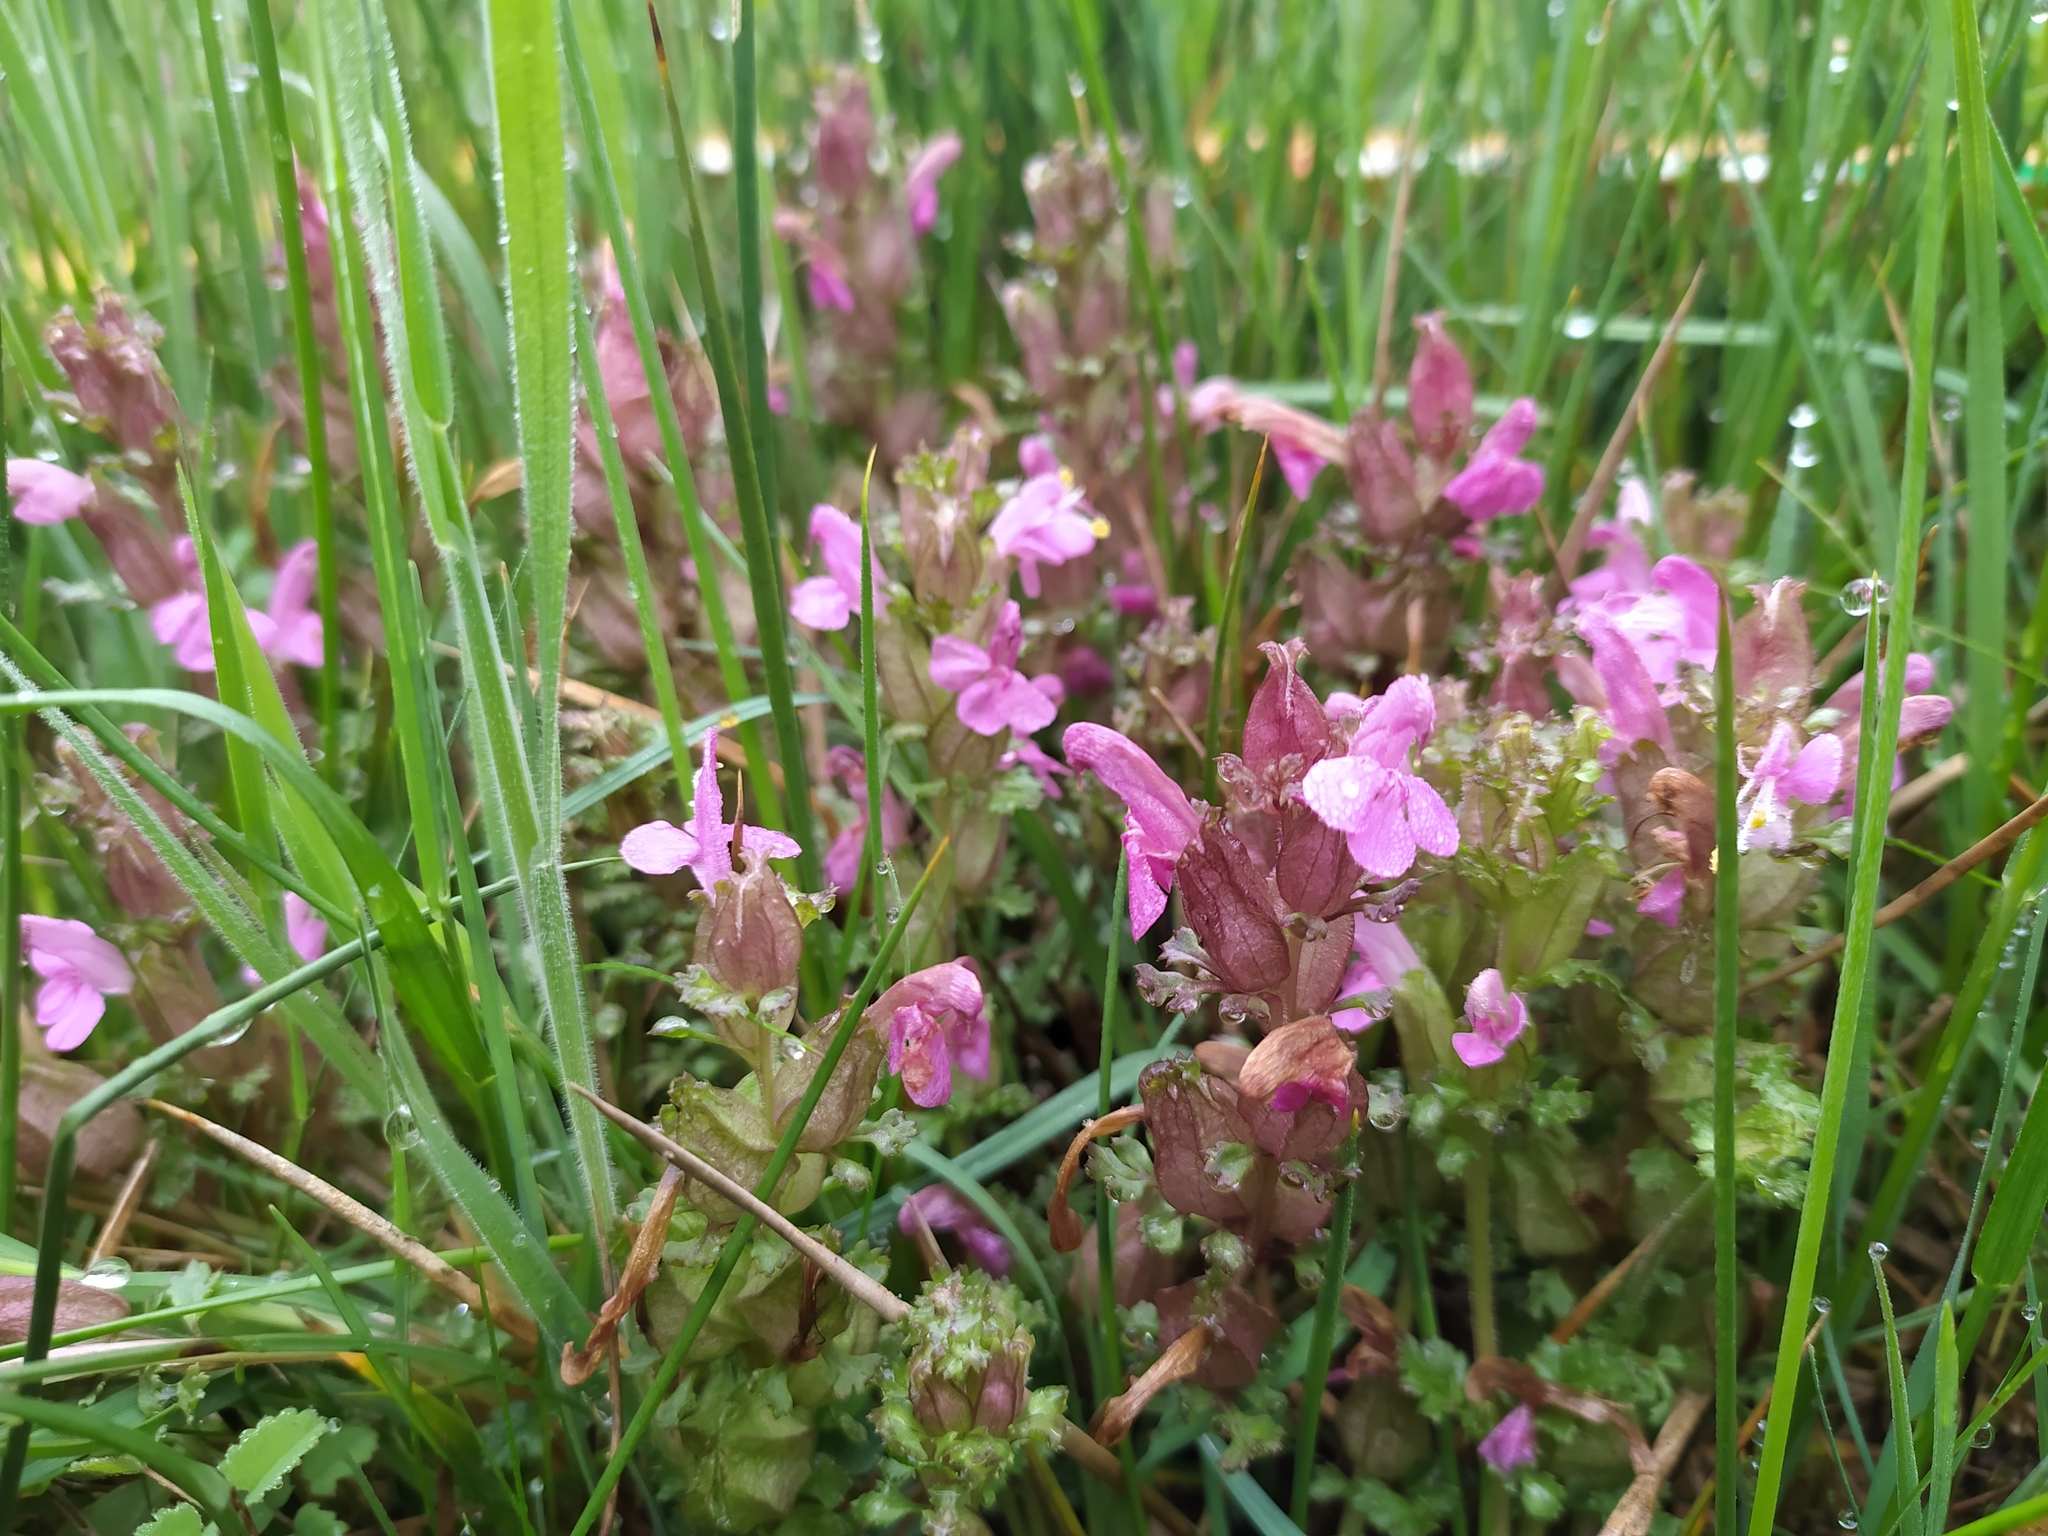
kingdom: Plantae
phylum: Tracheophyta
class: Magnoliopsida
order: Lamiales
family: Orobanchaceae
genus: Pedicularis
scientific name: Pedicularis sylvatica
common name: Lousewort
